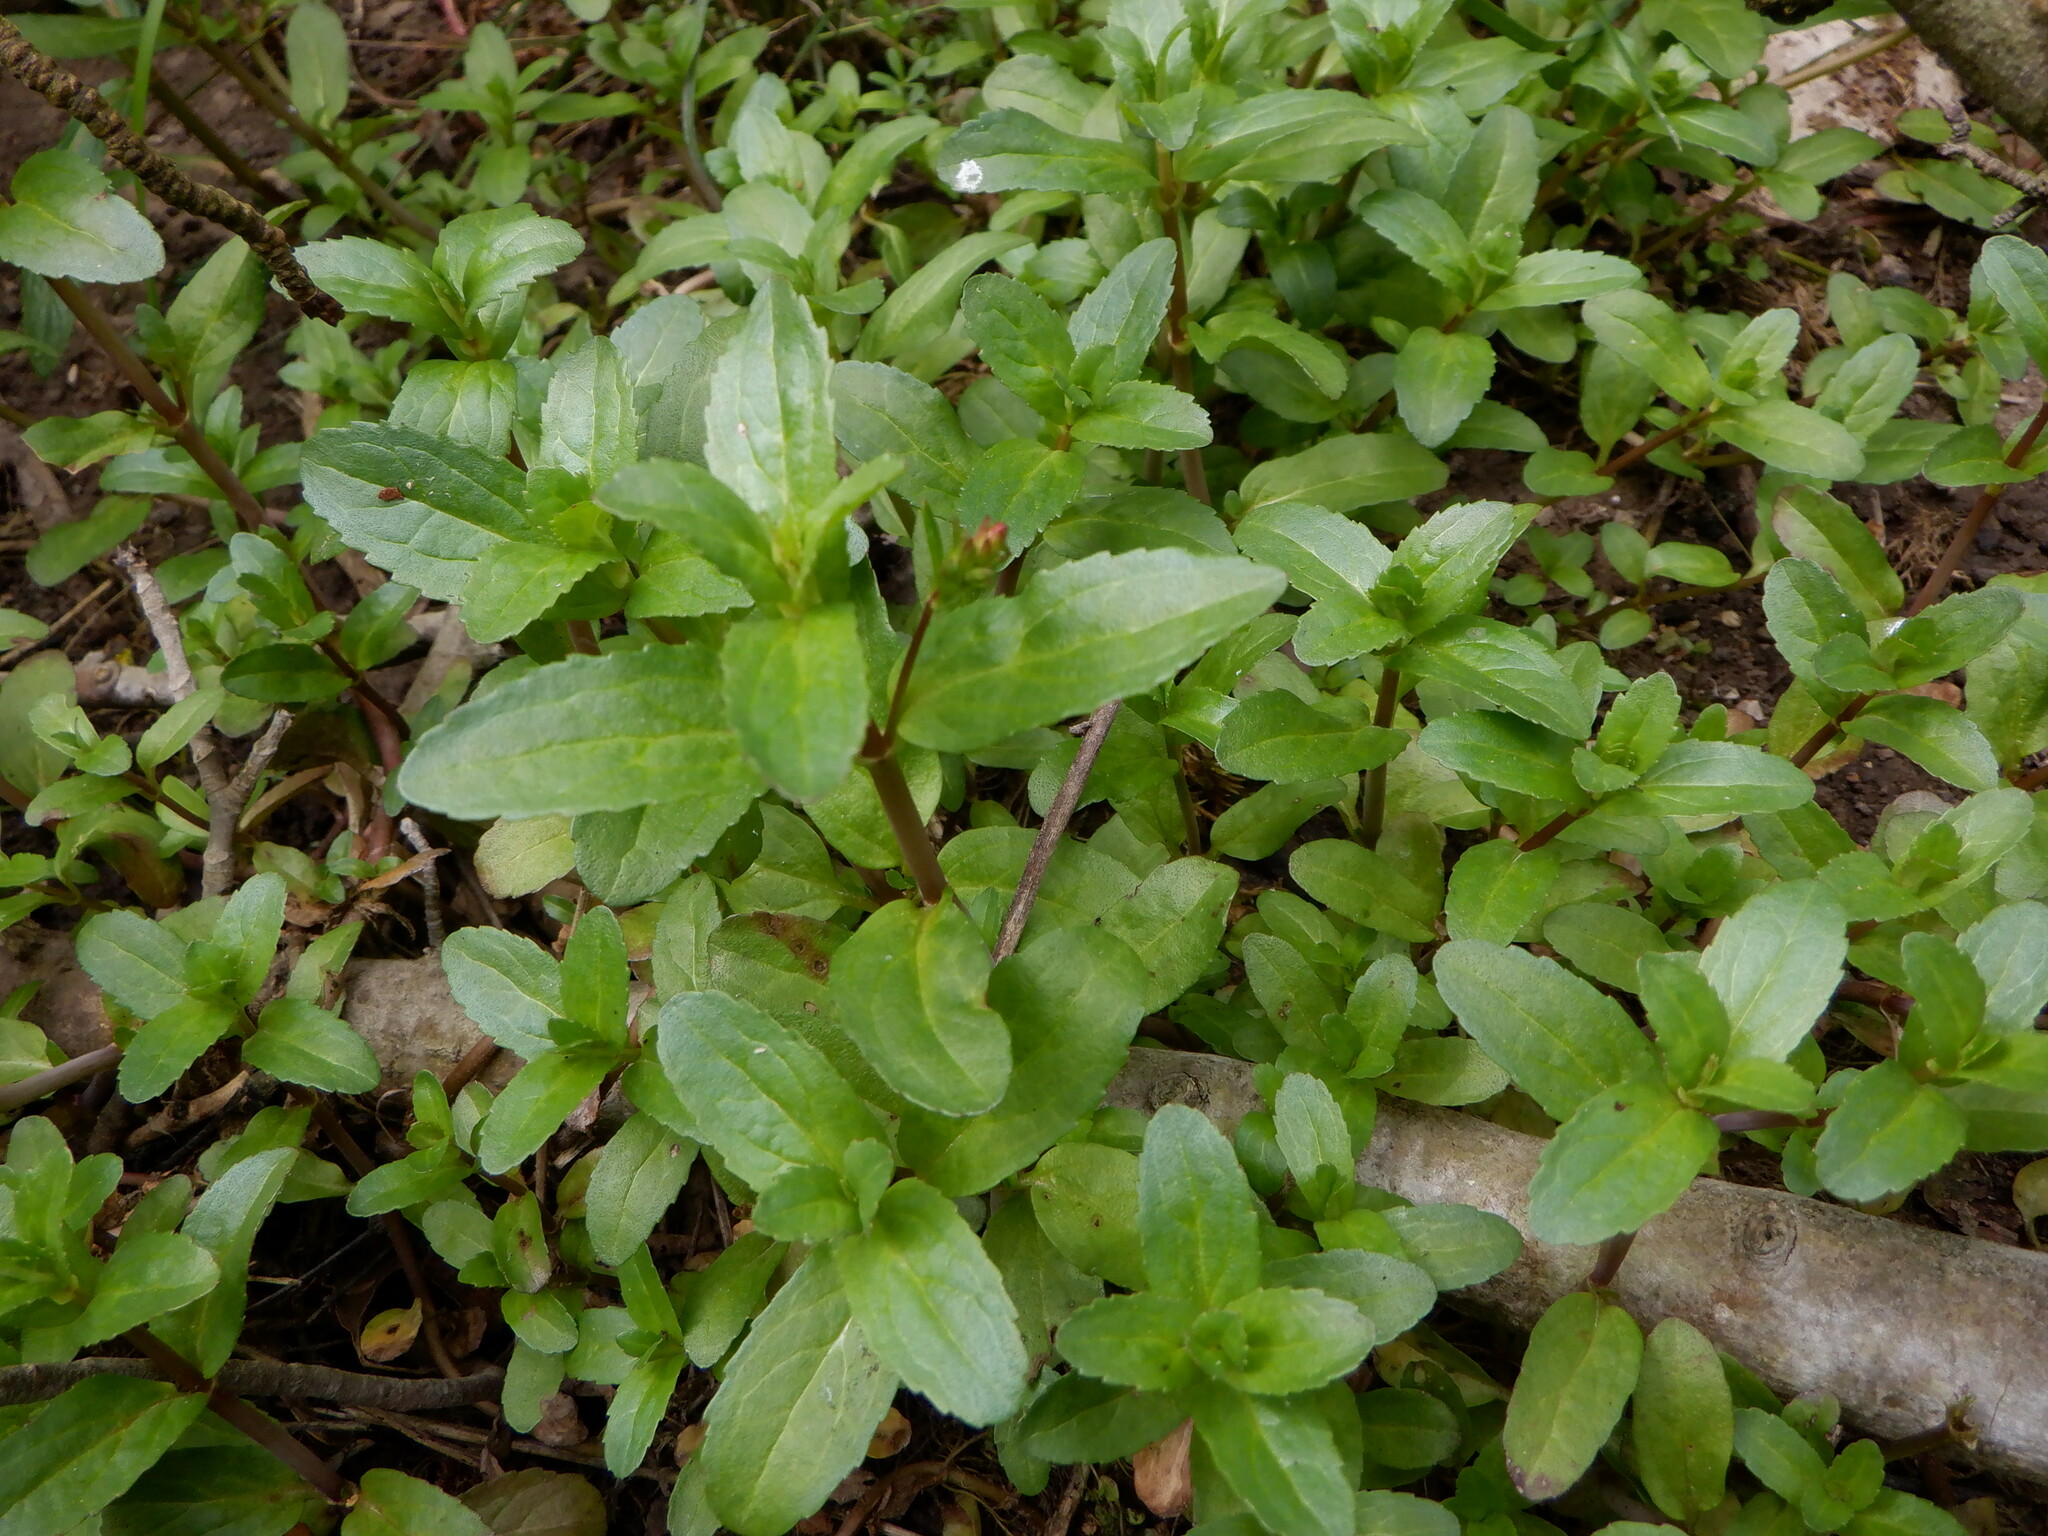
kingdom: Plantae
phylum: Tracheophyta
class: Magnoliopsida
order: Lamiales
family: Plantaginaceae
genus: Veronica
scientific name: Veronica beccabunga
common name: Brooklime
